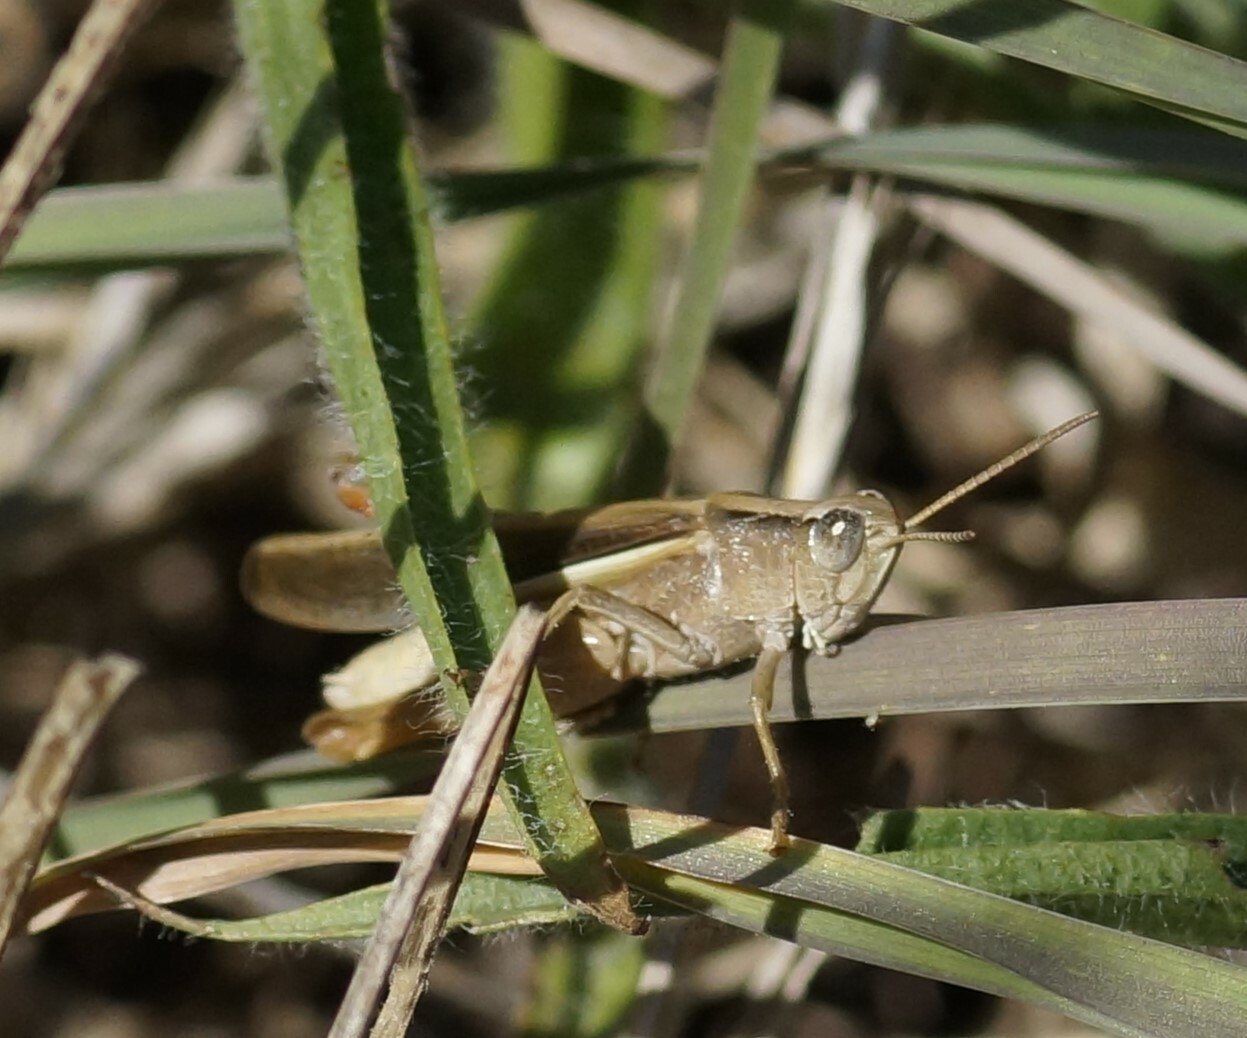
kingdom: Animalia
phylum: Arthropoda
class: Insecta
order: Orthoptera
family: Acrididae
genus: Schizobothrus
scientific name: Schizobothrus flavovittatus
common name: Disappearing grasshopper
